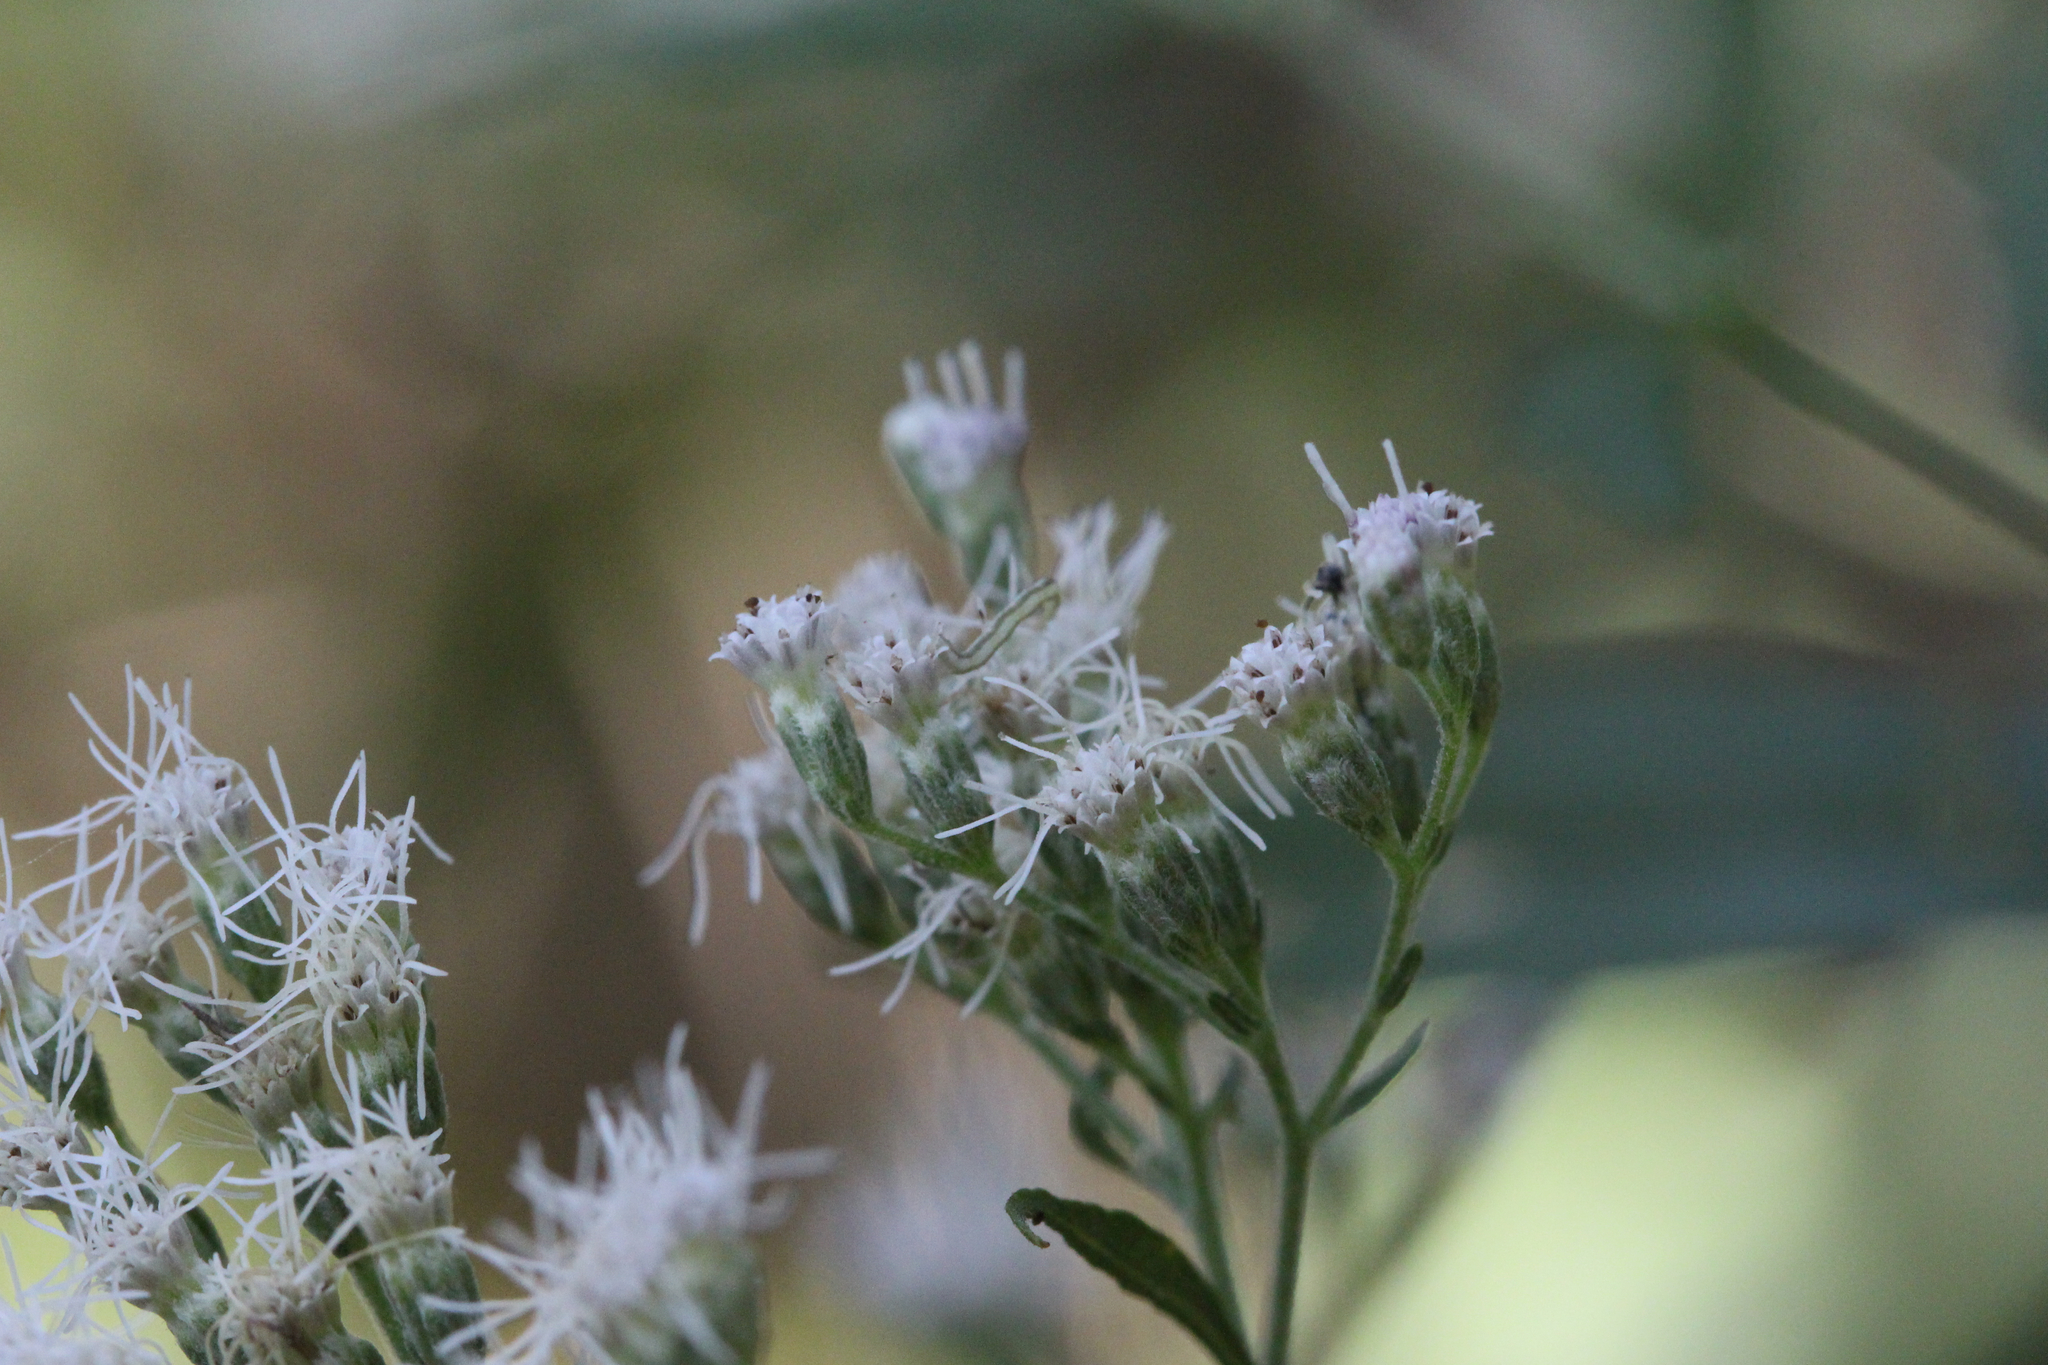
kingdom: Plantae
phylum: Tracheophyta
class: Magnoliopsida
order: Asterales
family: Asteraceae
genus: Eupatorium
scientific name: Eupatorium serotinum
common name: Late boneset
